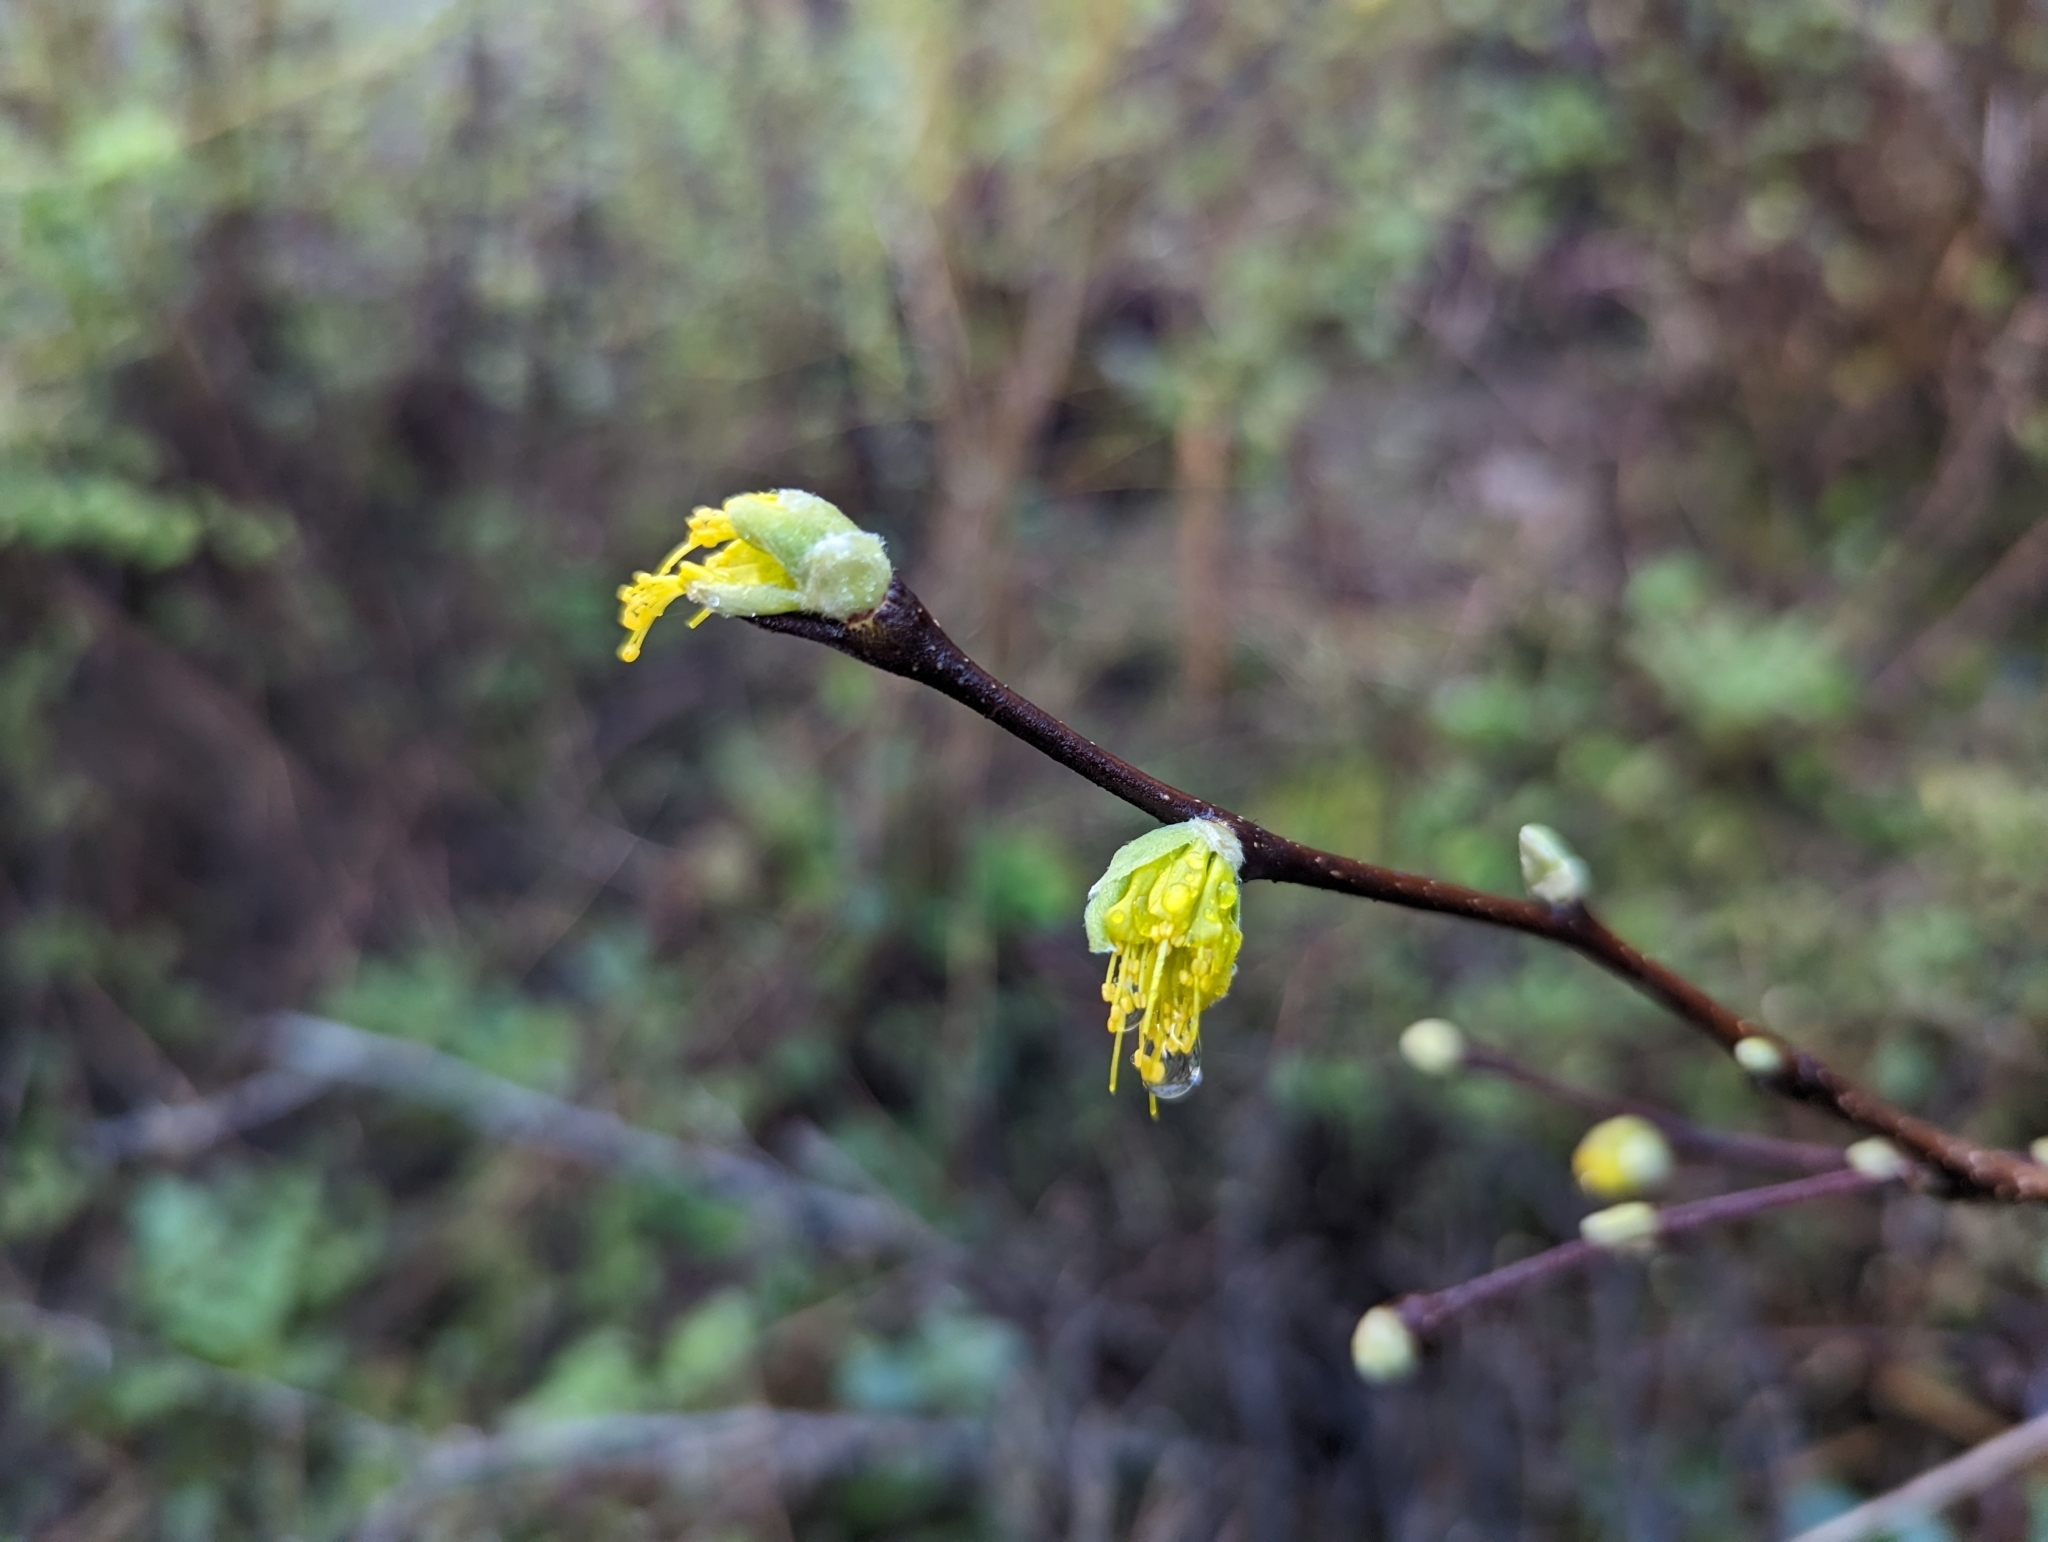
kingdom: Plantae
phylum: Tracheophyta
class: Magnoliopsida
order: Malvales
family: Thymelaeaceae
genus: Dirca
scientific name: Dirca occidentalis
